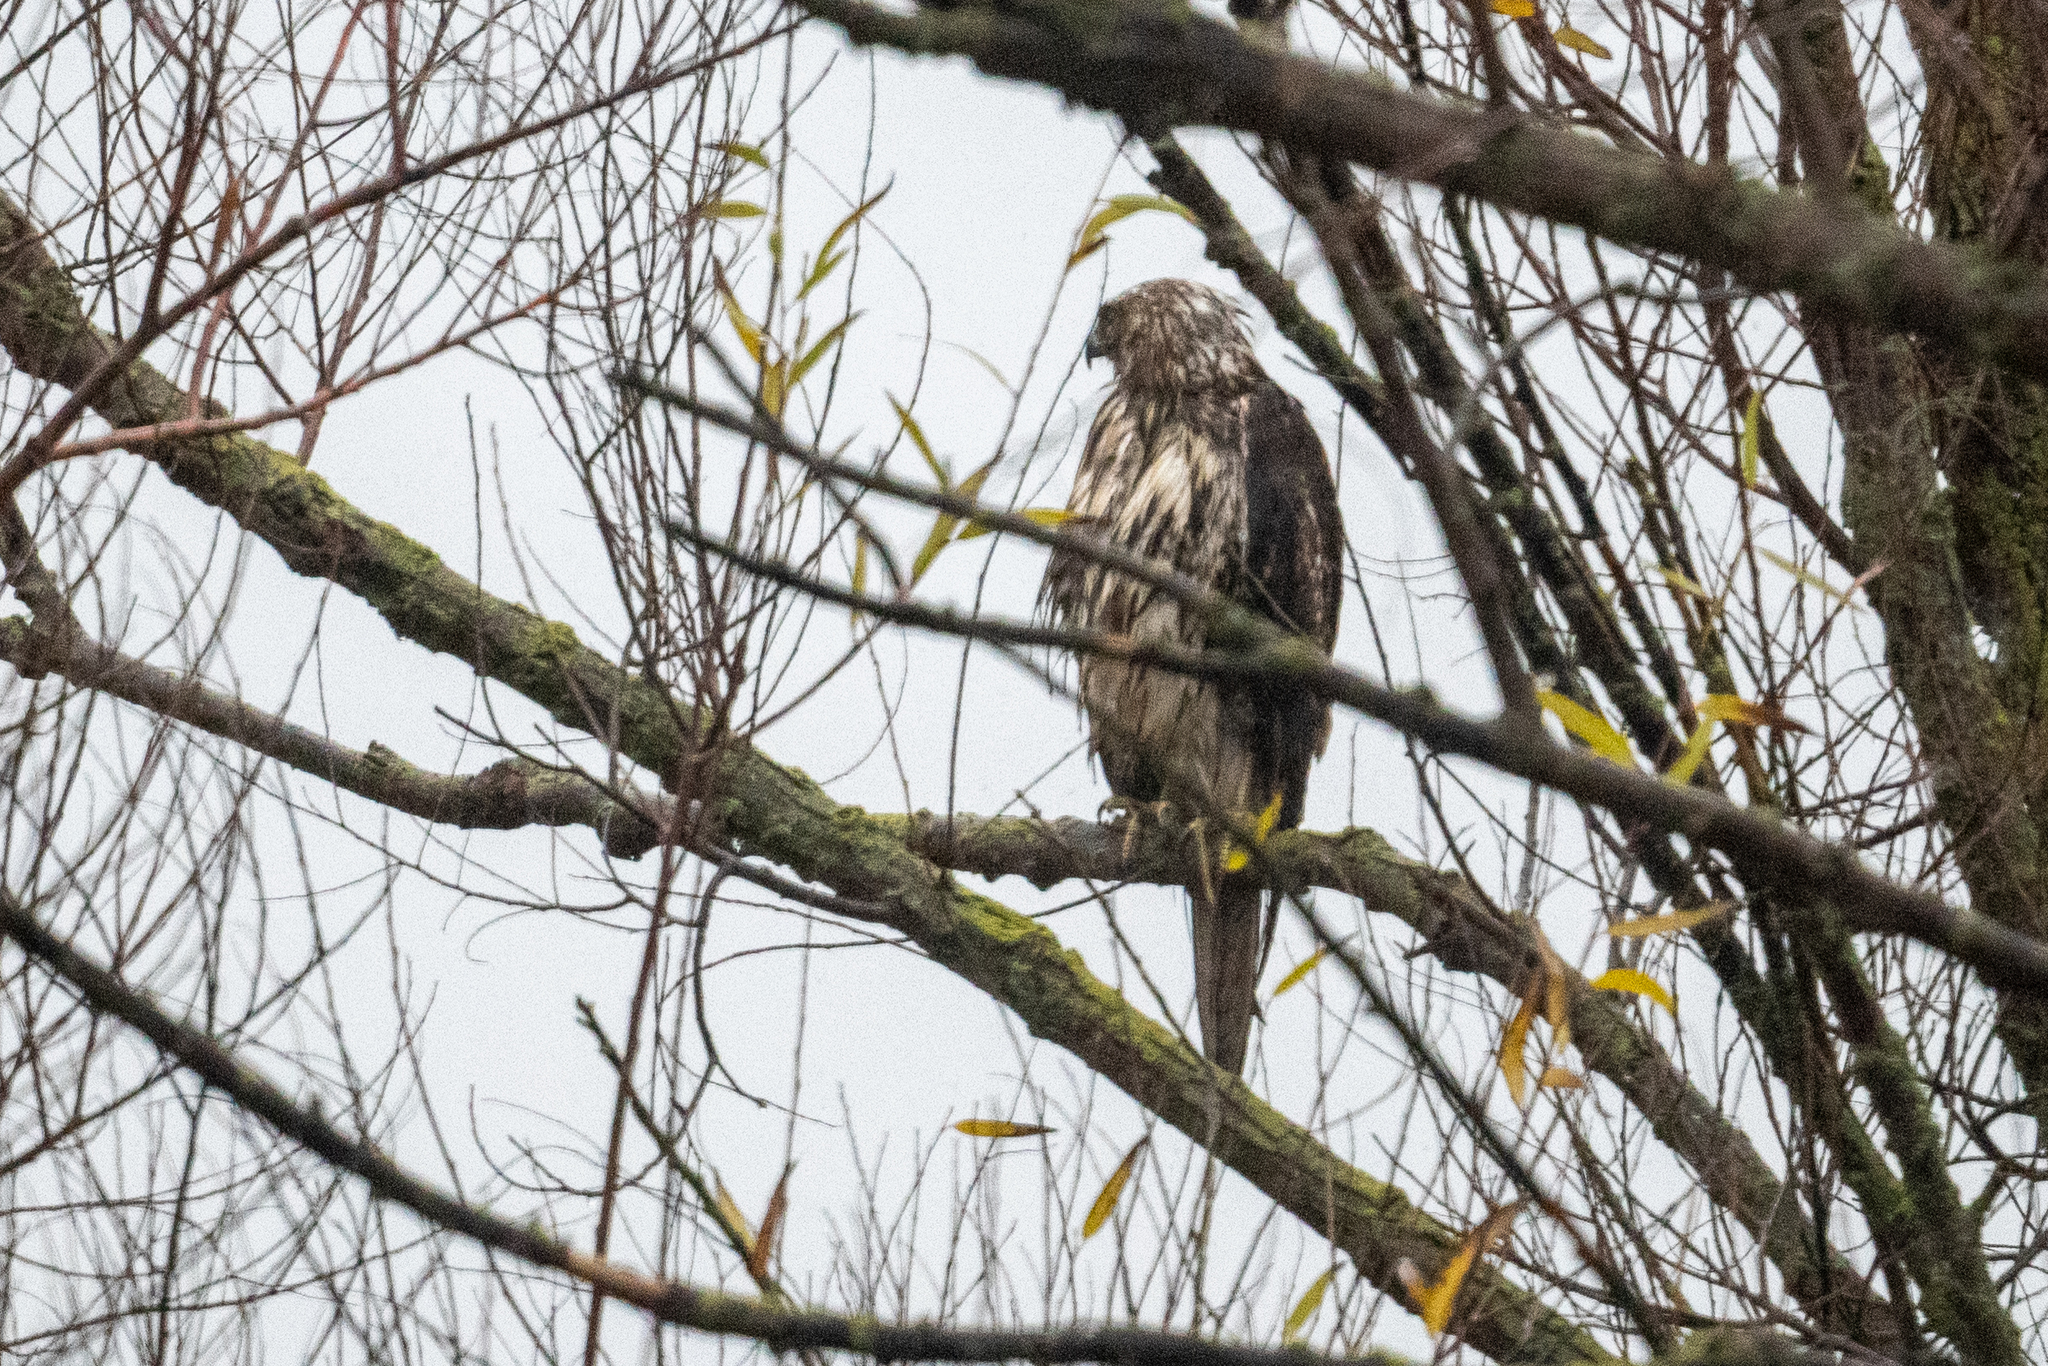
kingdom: Animalia
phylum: Chordata
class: Aves
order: Accipitriformes
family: Accipitridae
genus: Buteo
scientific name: Buteo jamaicensis
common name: Red-tailed hawk
